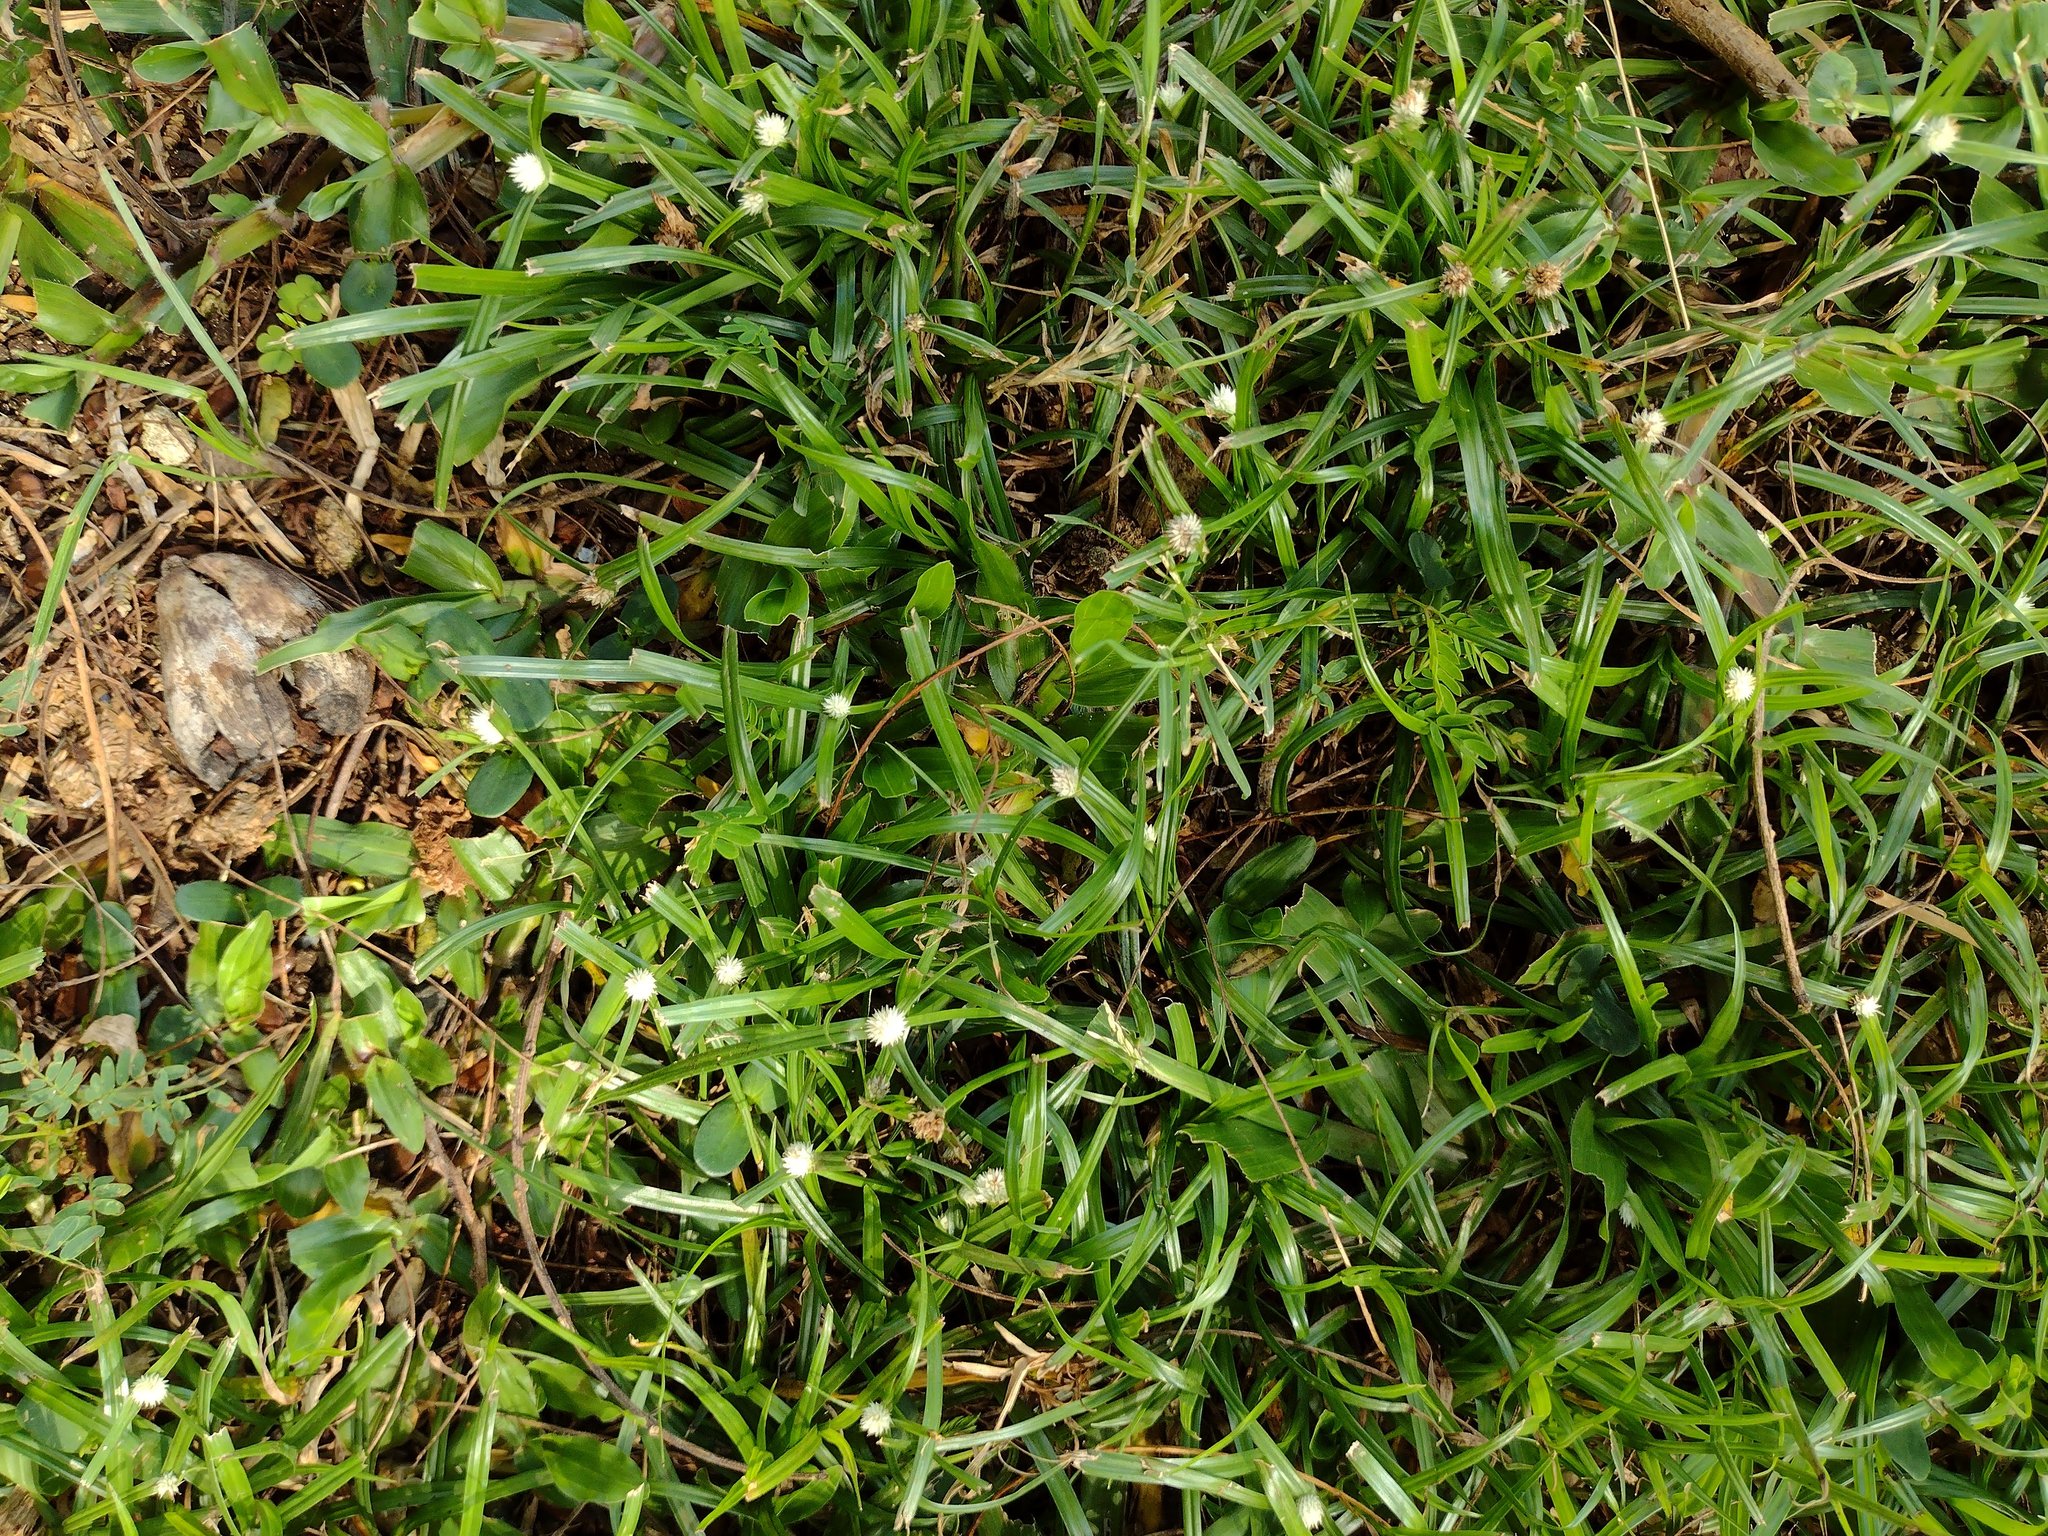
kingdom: Plantae
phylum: Tracheophyta
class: Liliopsida
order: Poales
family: Cyperaceae
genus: Cyperus
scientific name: Cyperus mindorensis
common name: Flatsedge
